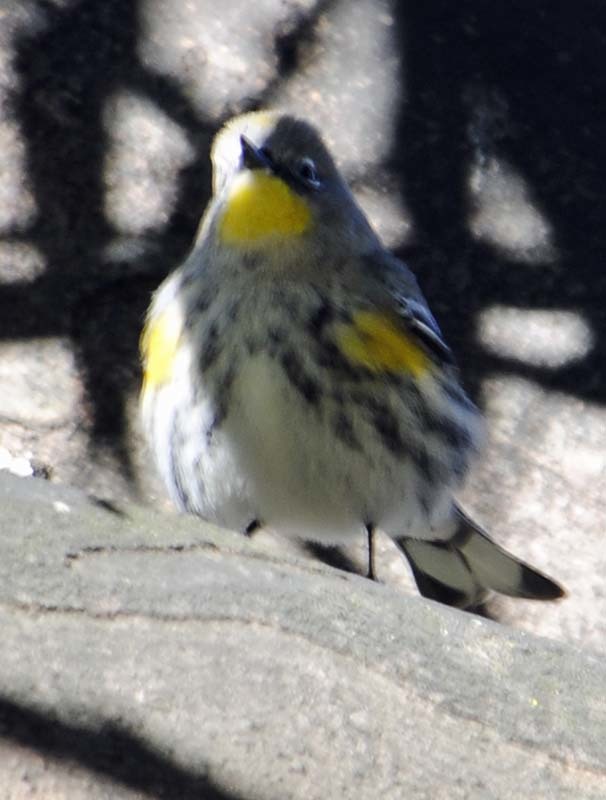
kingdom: Animalia
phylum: Chordata
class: Aves
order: Passeriformes
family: Parulidae
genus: Setophaga
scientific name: Setophaga coronata
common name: Myrtle warbler
